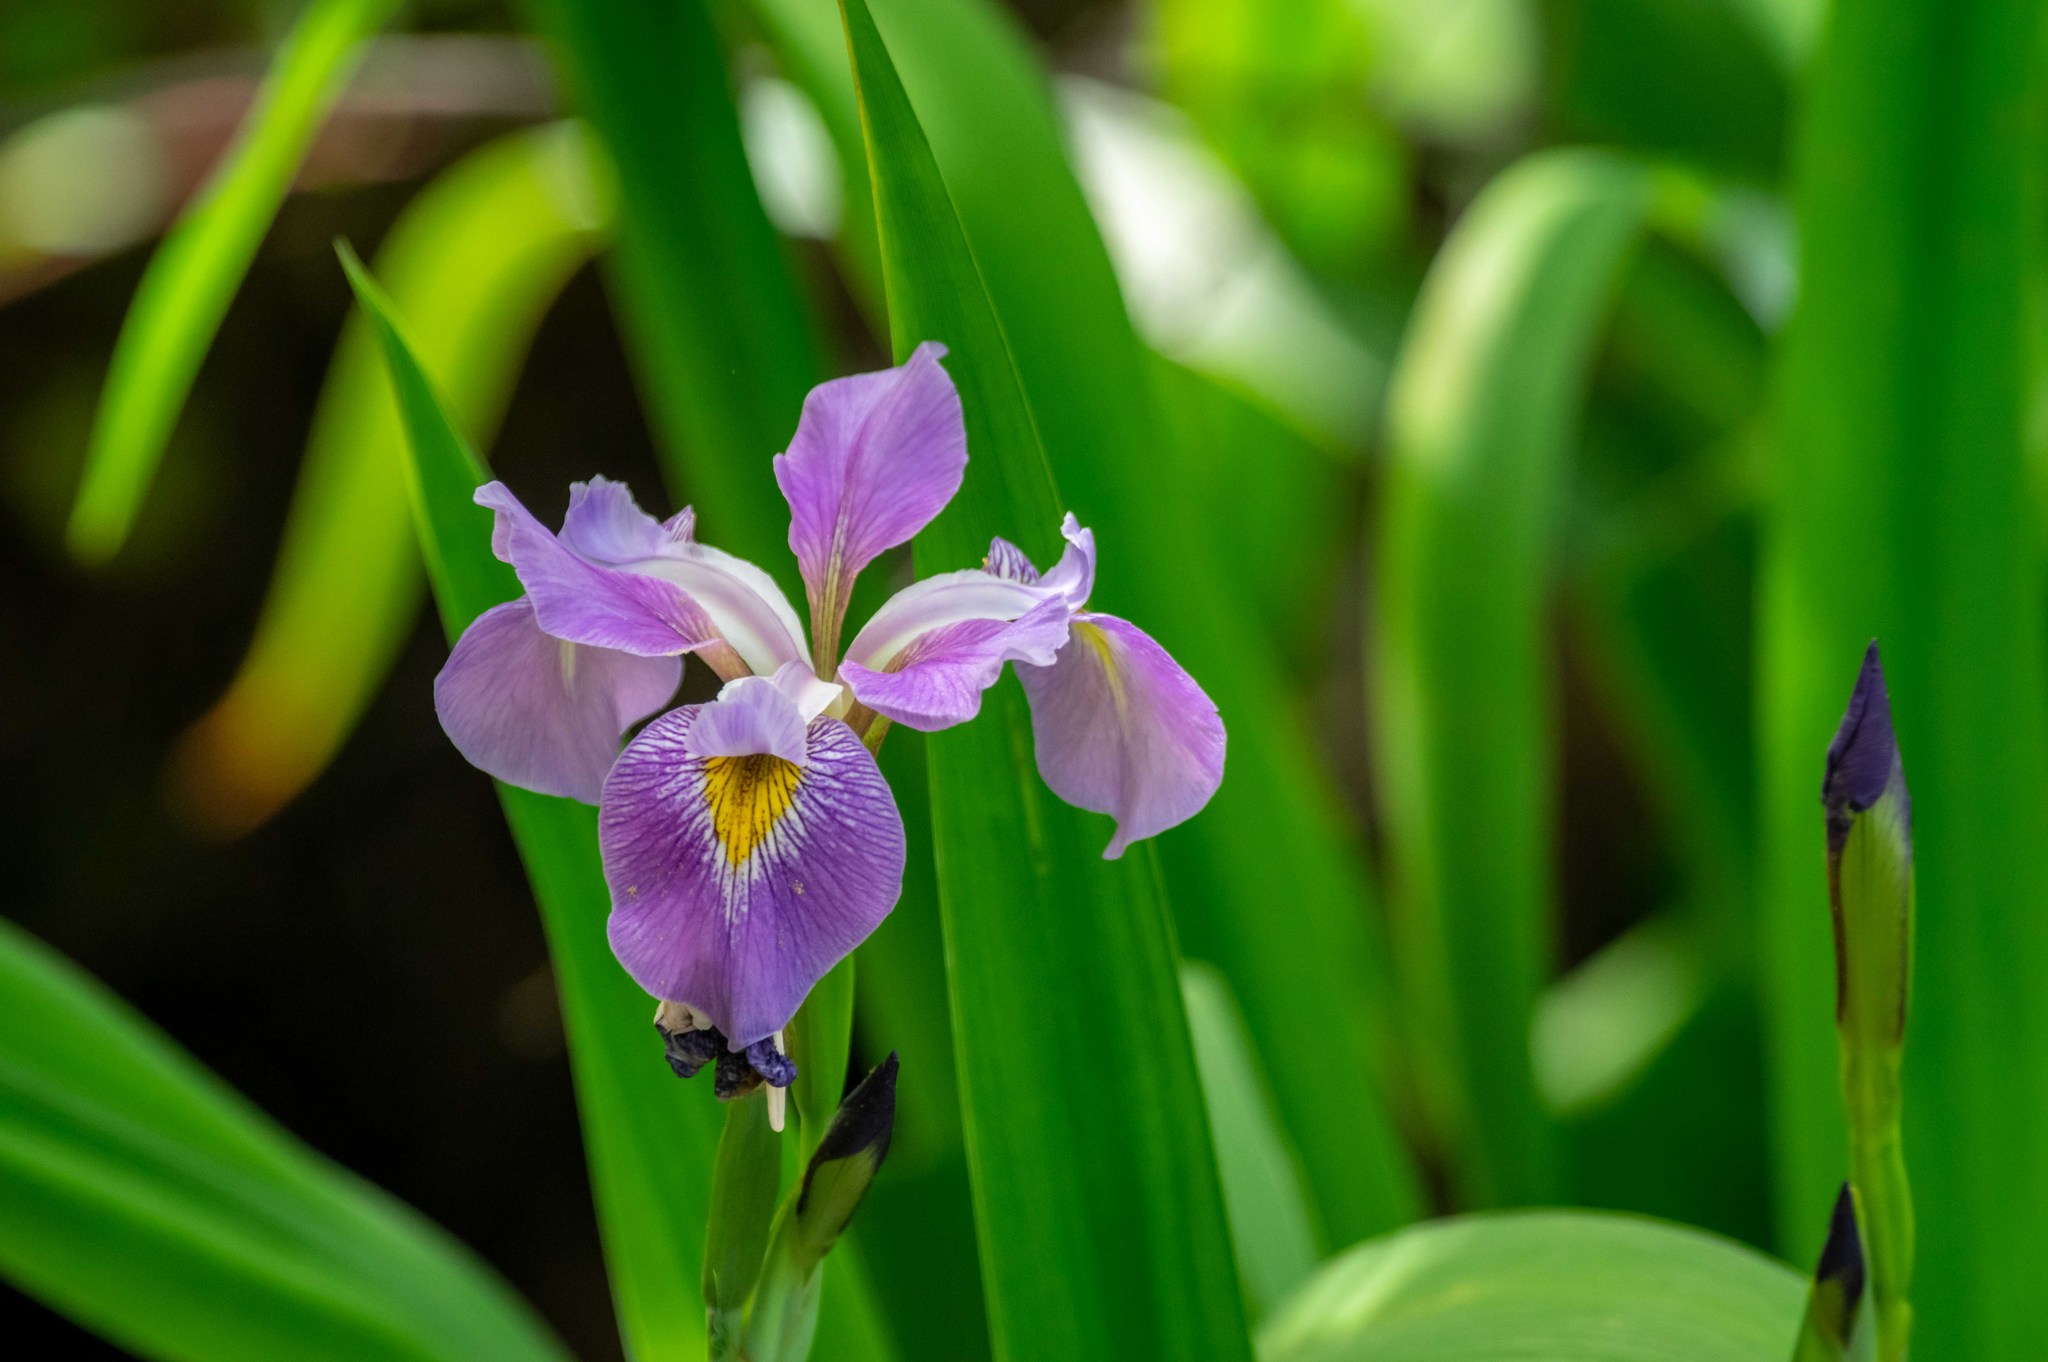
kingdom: Plantae
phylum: Tracheophyta
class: Liliopsida
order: Asparagales
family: Iridaceae
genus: Iris
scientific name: Iris virginica
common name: Southern blue flag
